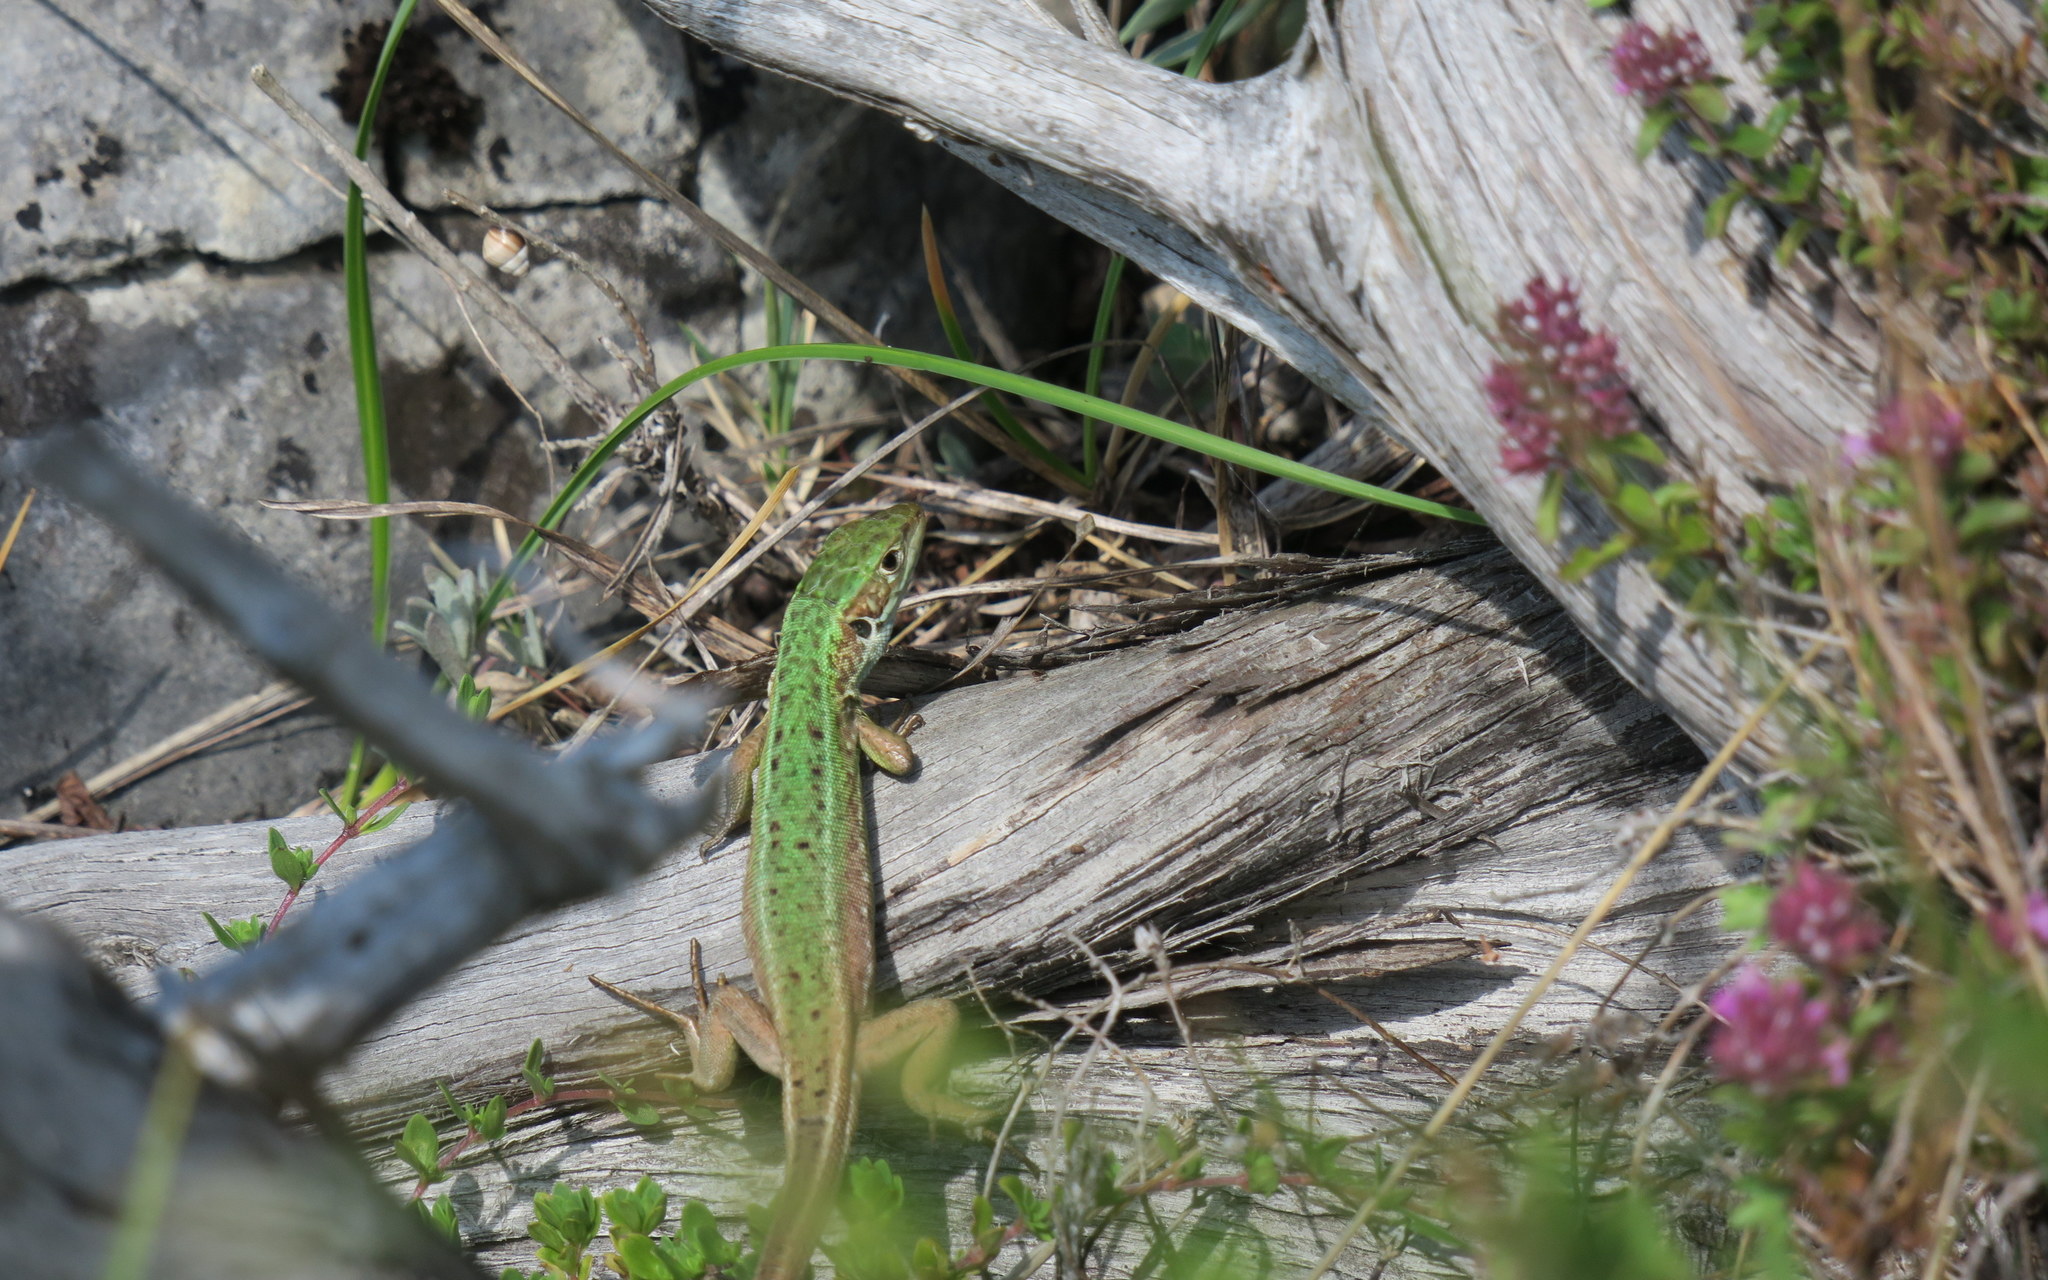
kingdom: Animalia
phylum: Chordata
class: Squamata
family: Lacertidae
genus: Lacerta
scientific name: Lacerta viridis
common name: European green lizard
